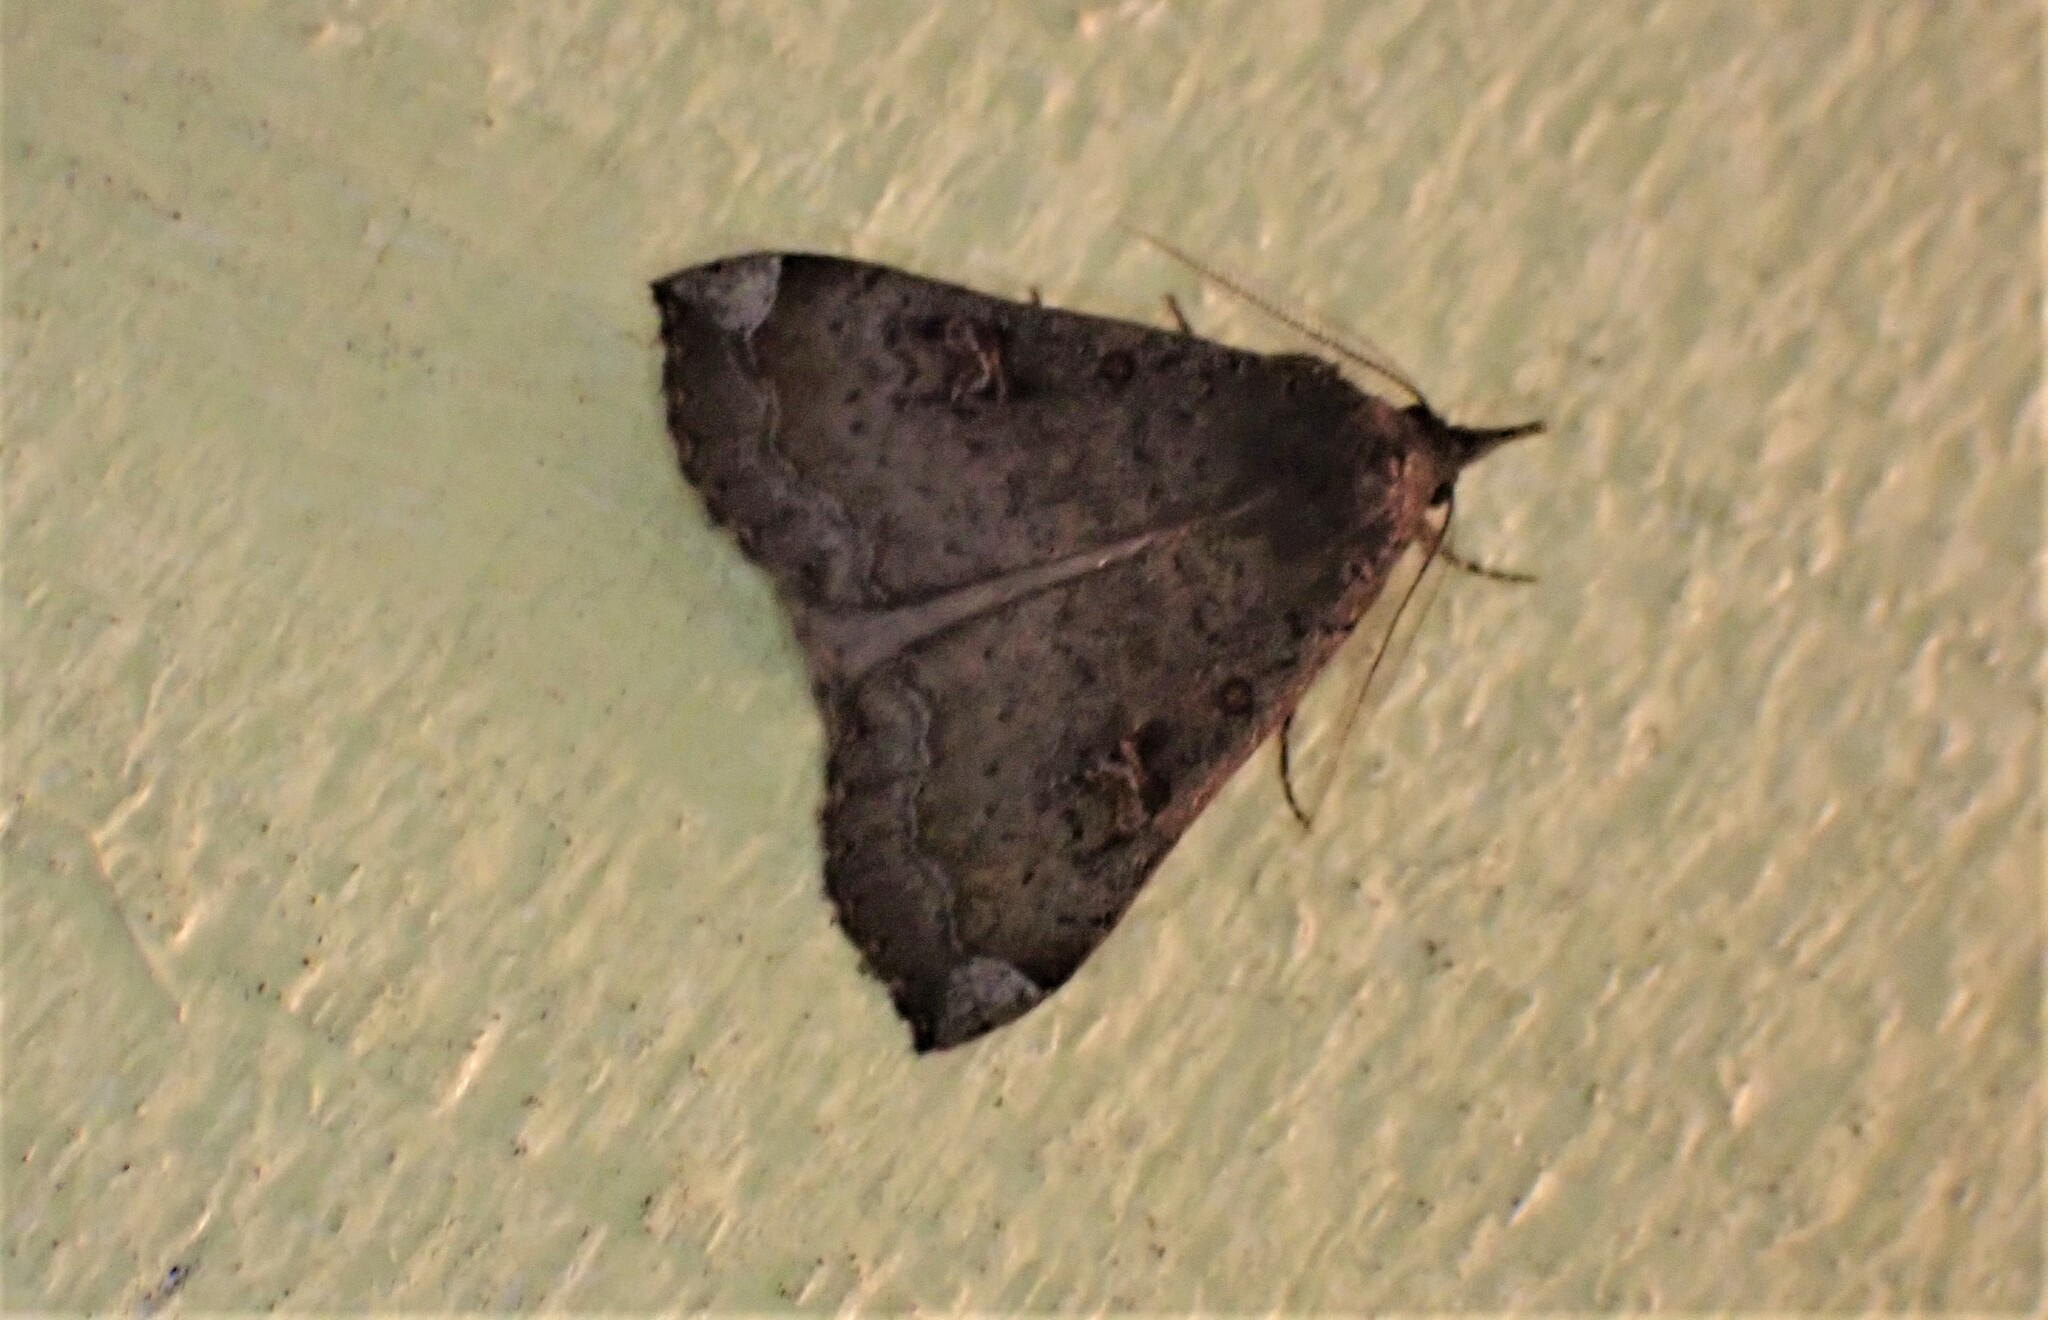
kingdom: Animalia
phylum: Arthropoda
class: Insecta
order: Lepidoptera
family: Erebidae
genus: Rhapsa
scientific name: Rhapsa scotosialis
